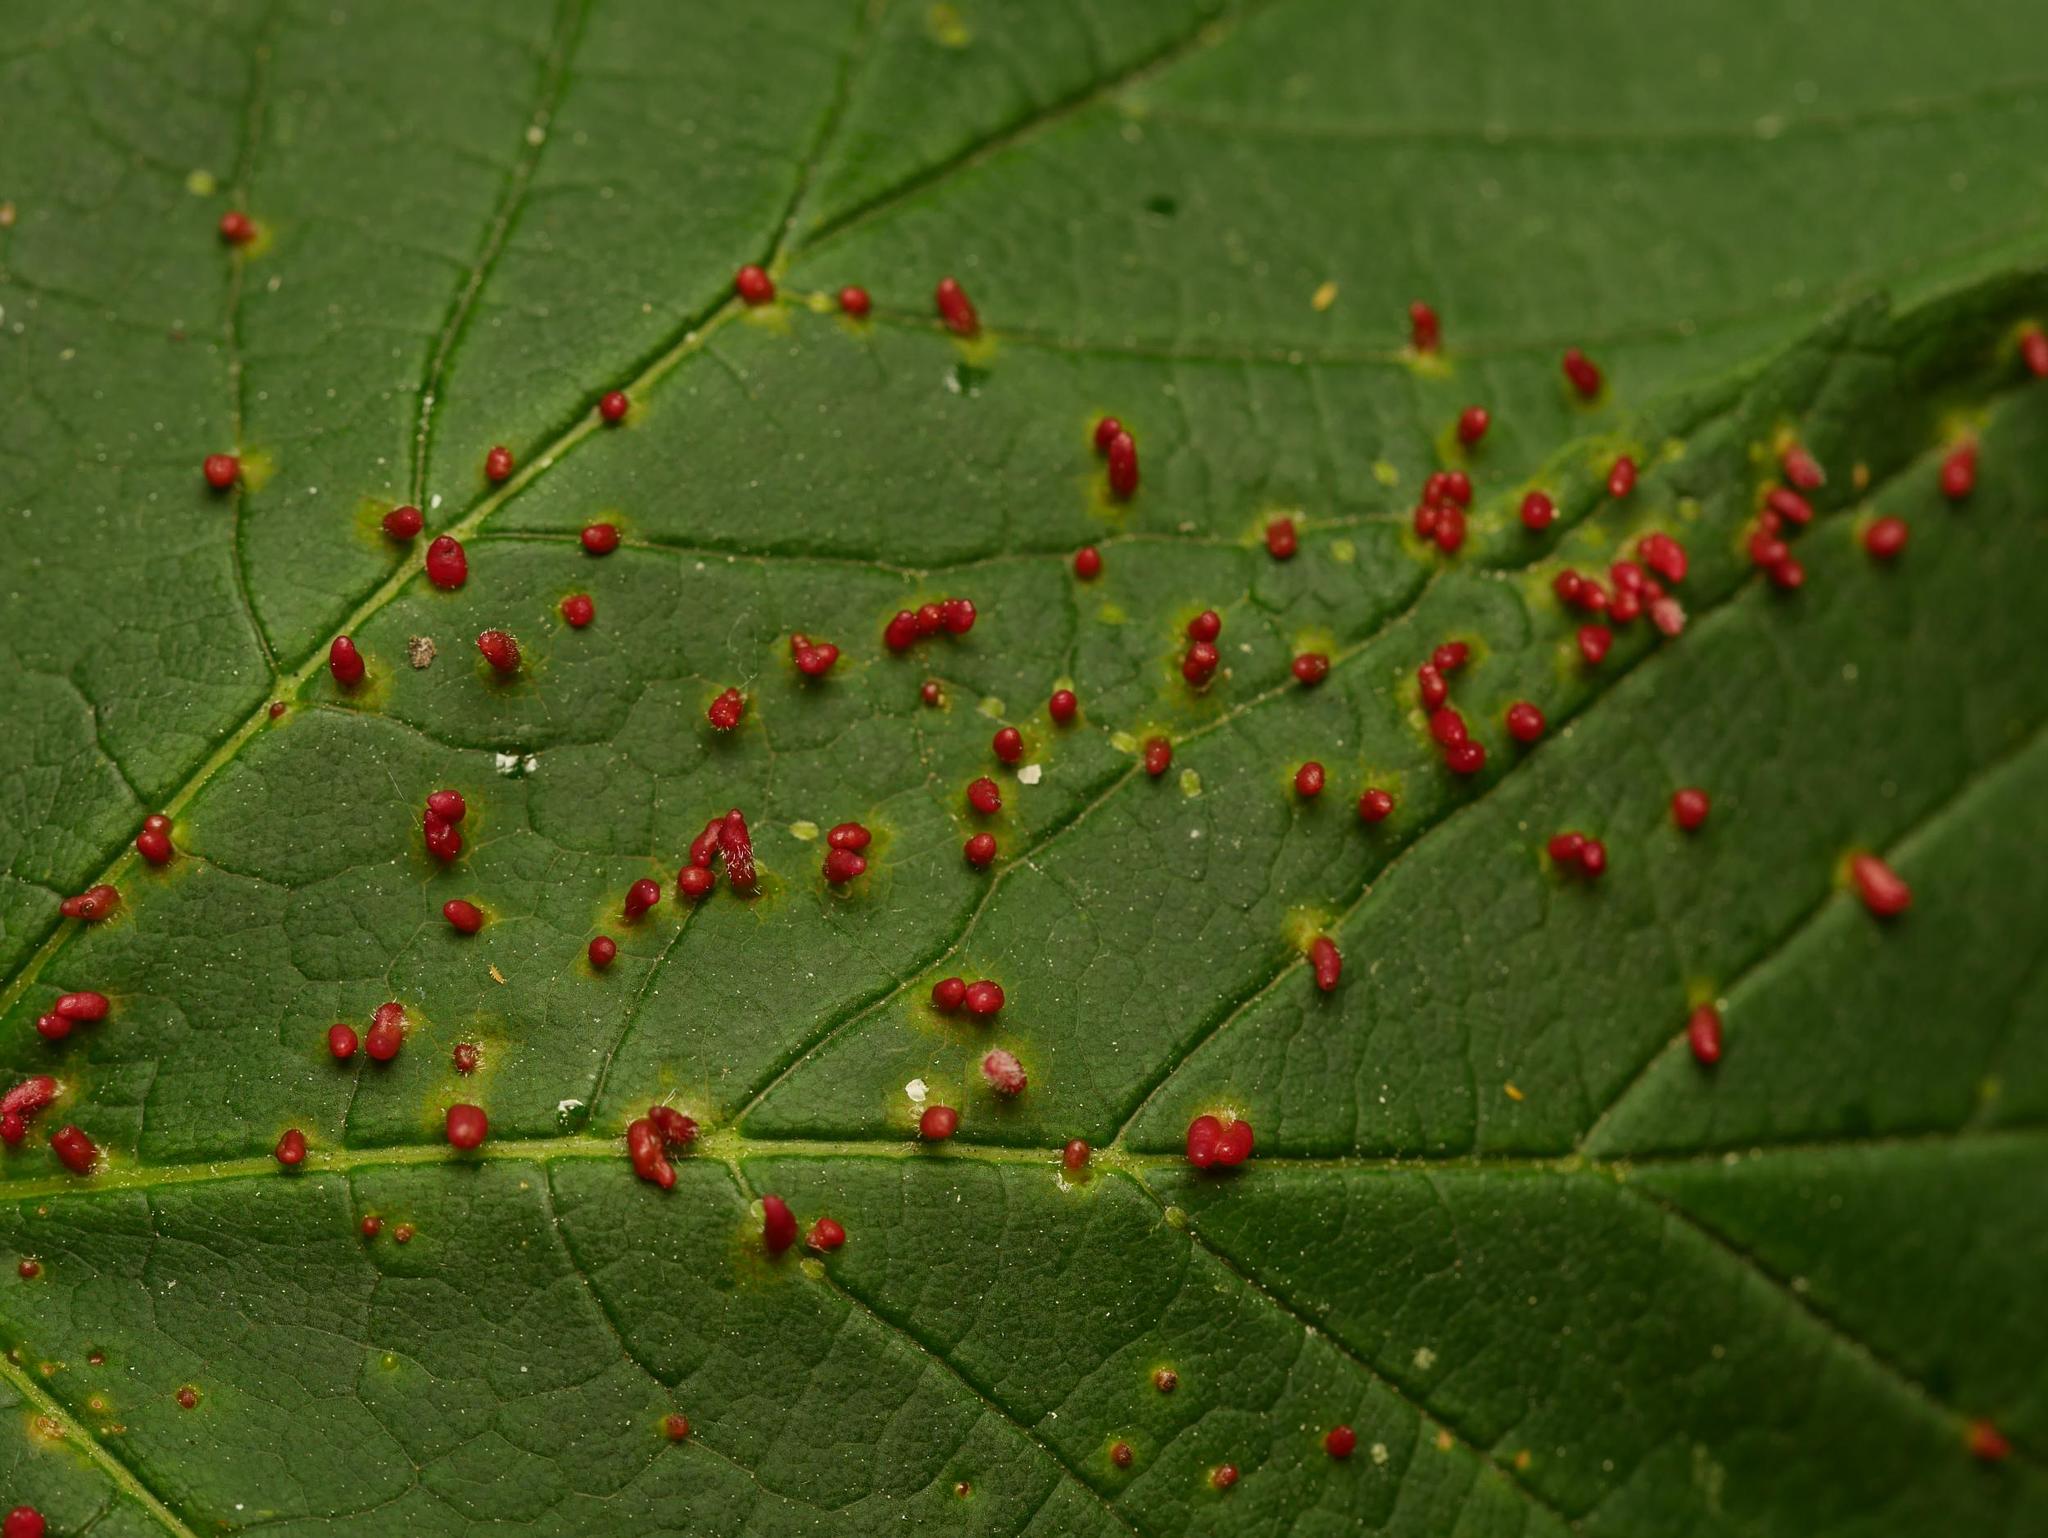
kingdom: Animalia
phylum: Arthropoda
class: Arachnida
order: Trombidiformes
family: Eriophyidae
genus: Aceria
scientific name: Aceria cephaloneus
